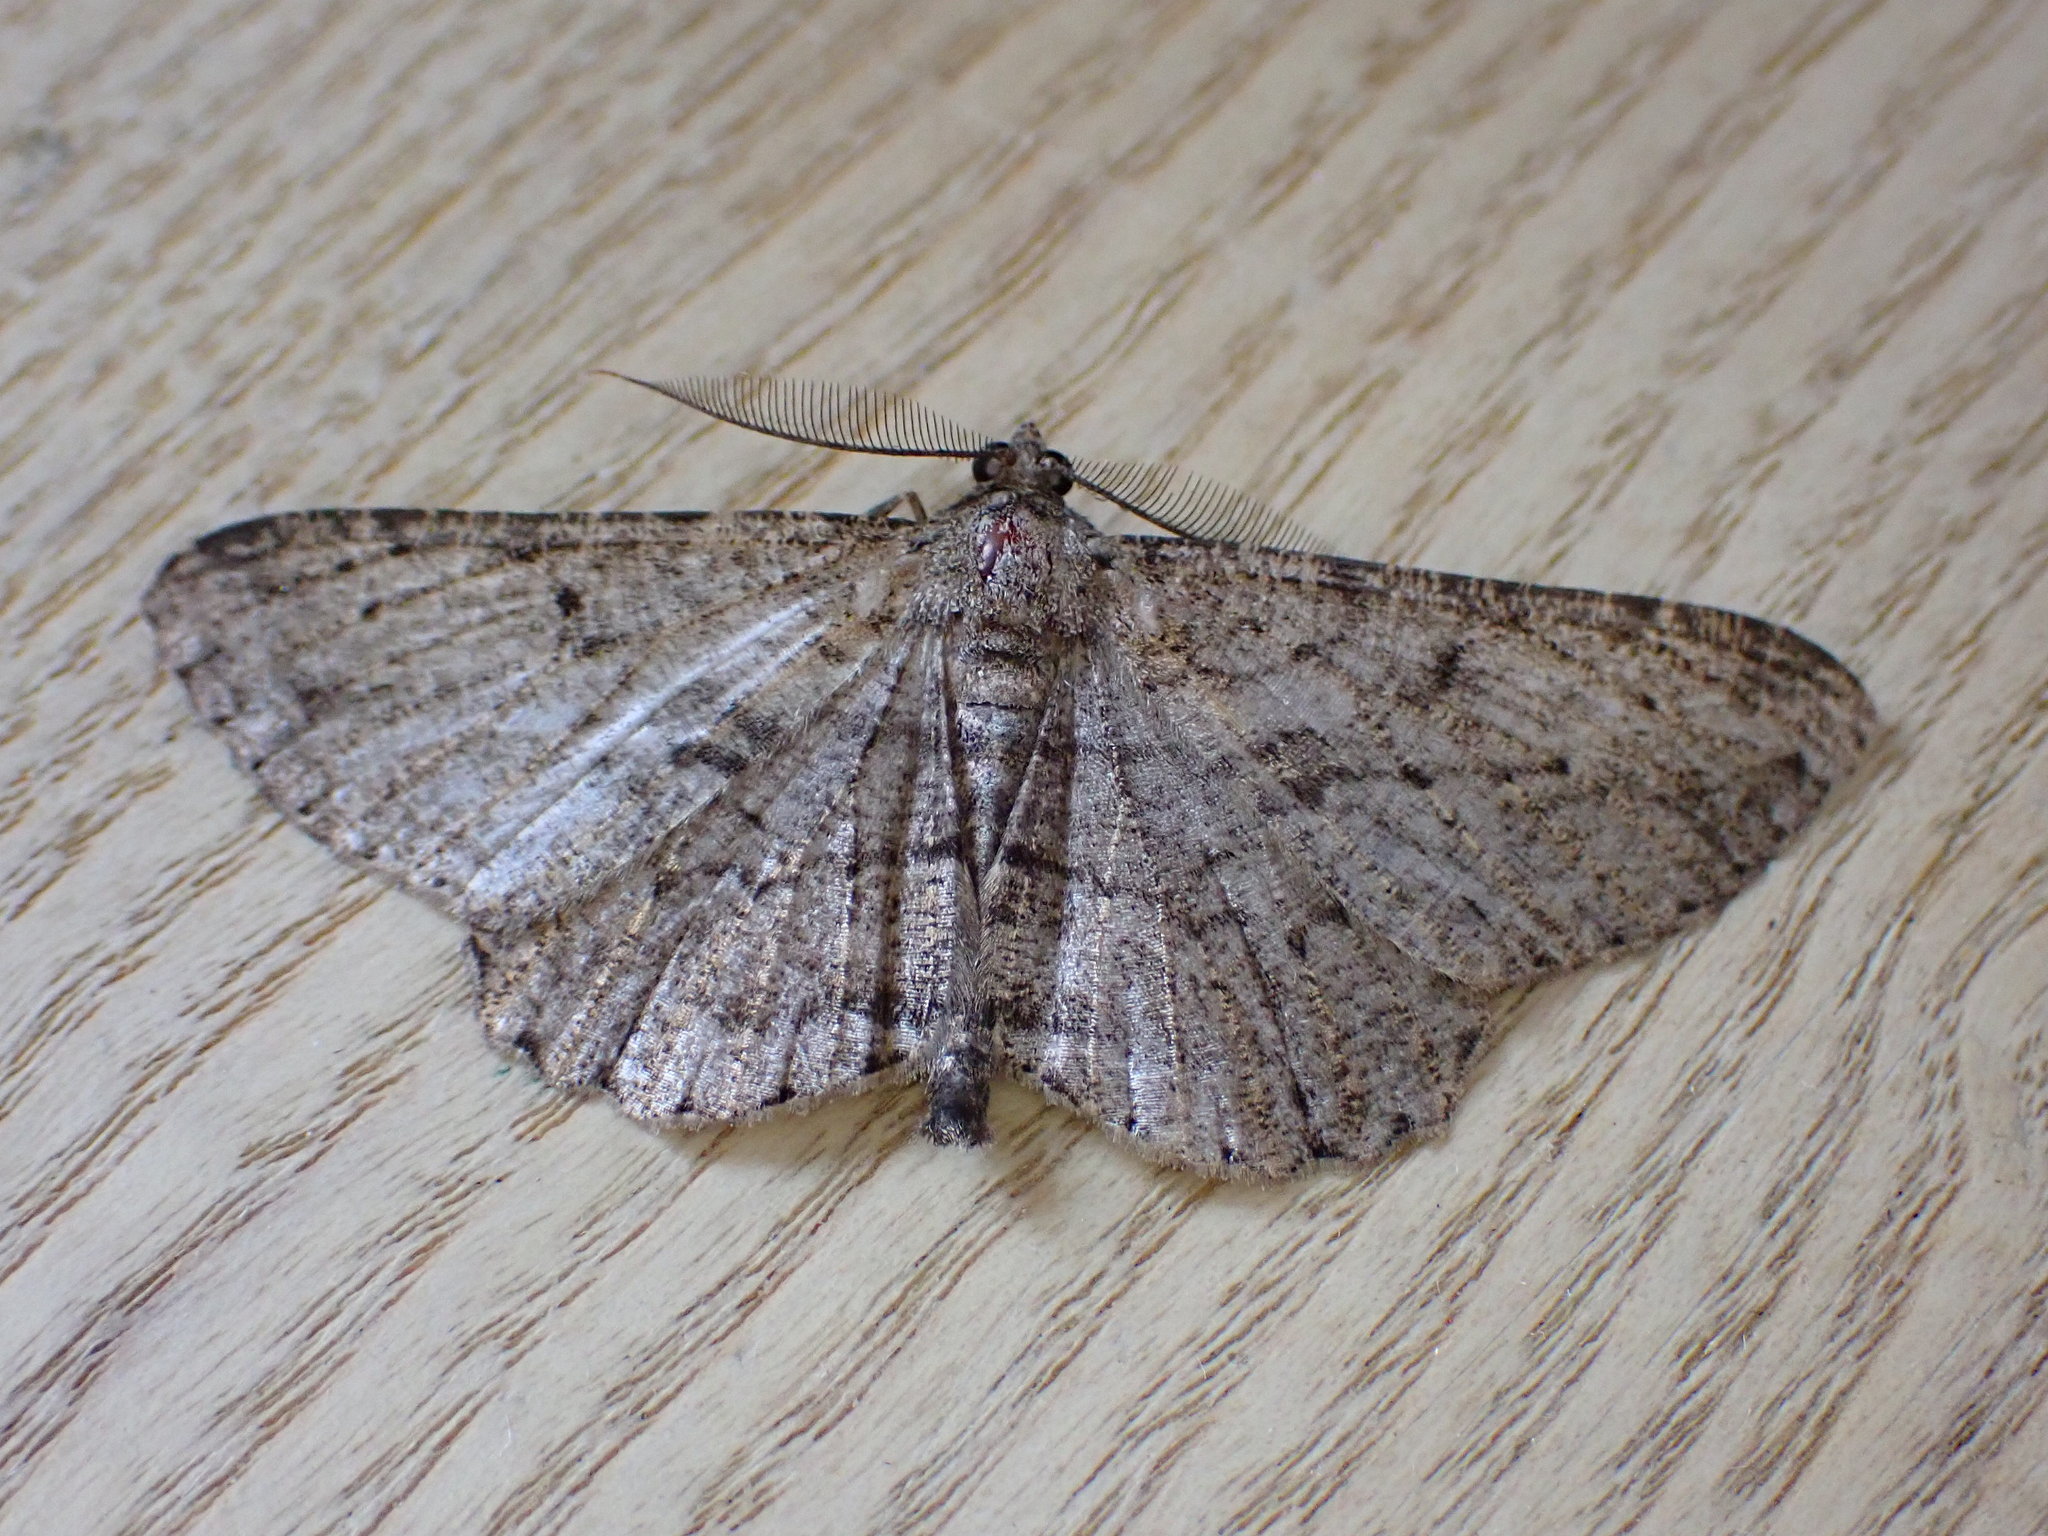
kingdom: Animalia
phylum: Arthropoda
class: Insecta
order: Lepidoptera
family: Geometridae
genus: Peribatodes
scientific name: Peribatodes rhomboidaria
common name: Willow beauty
